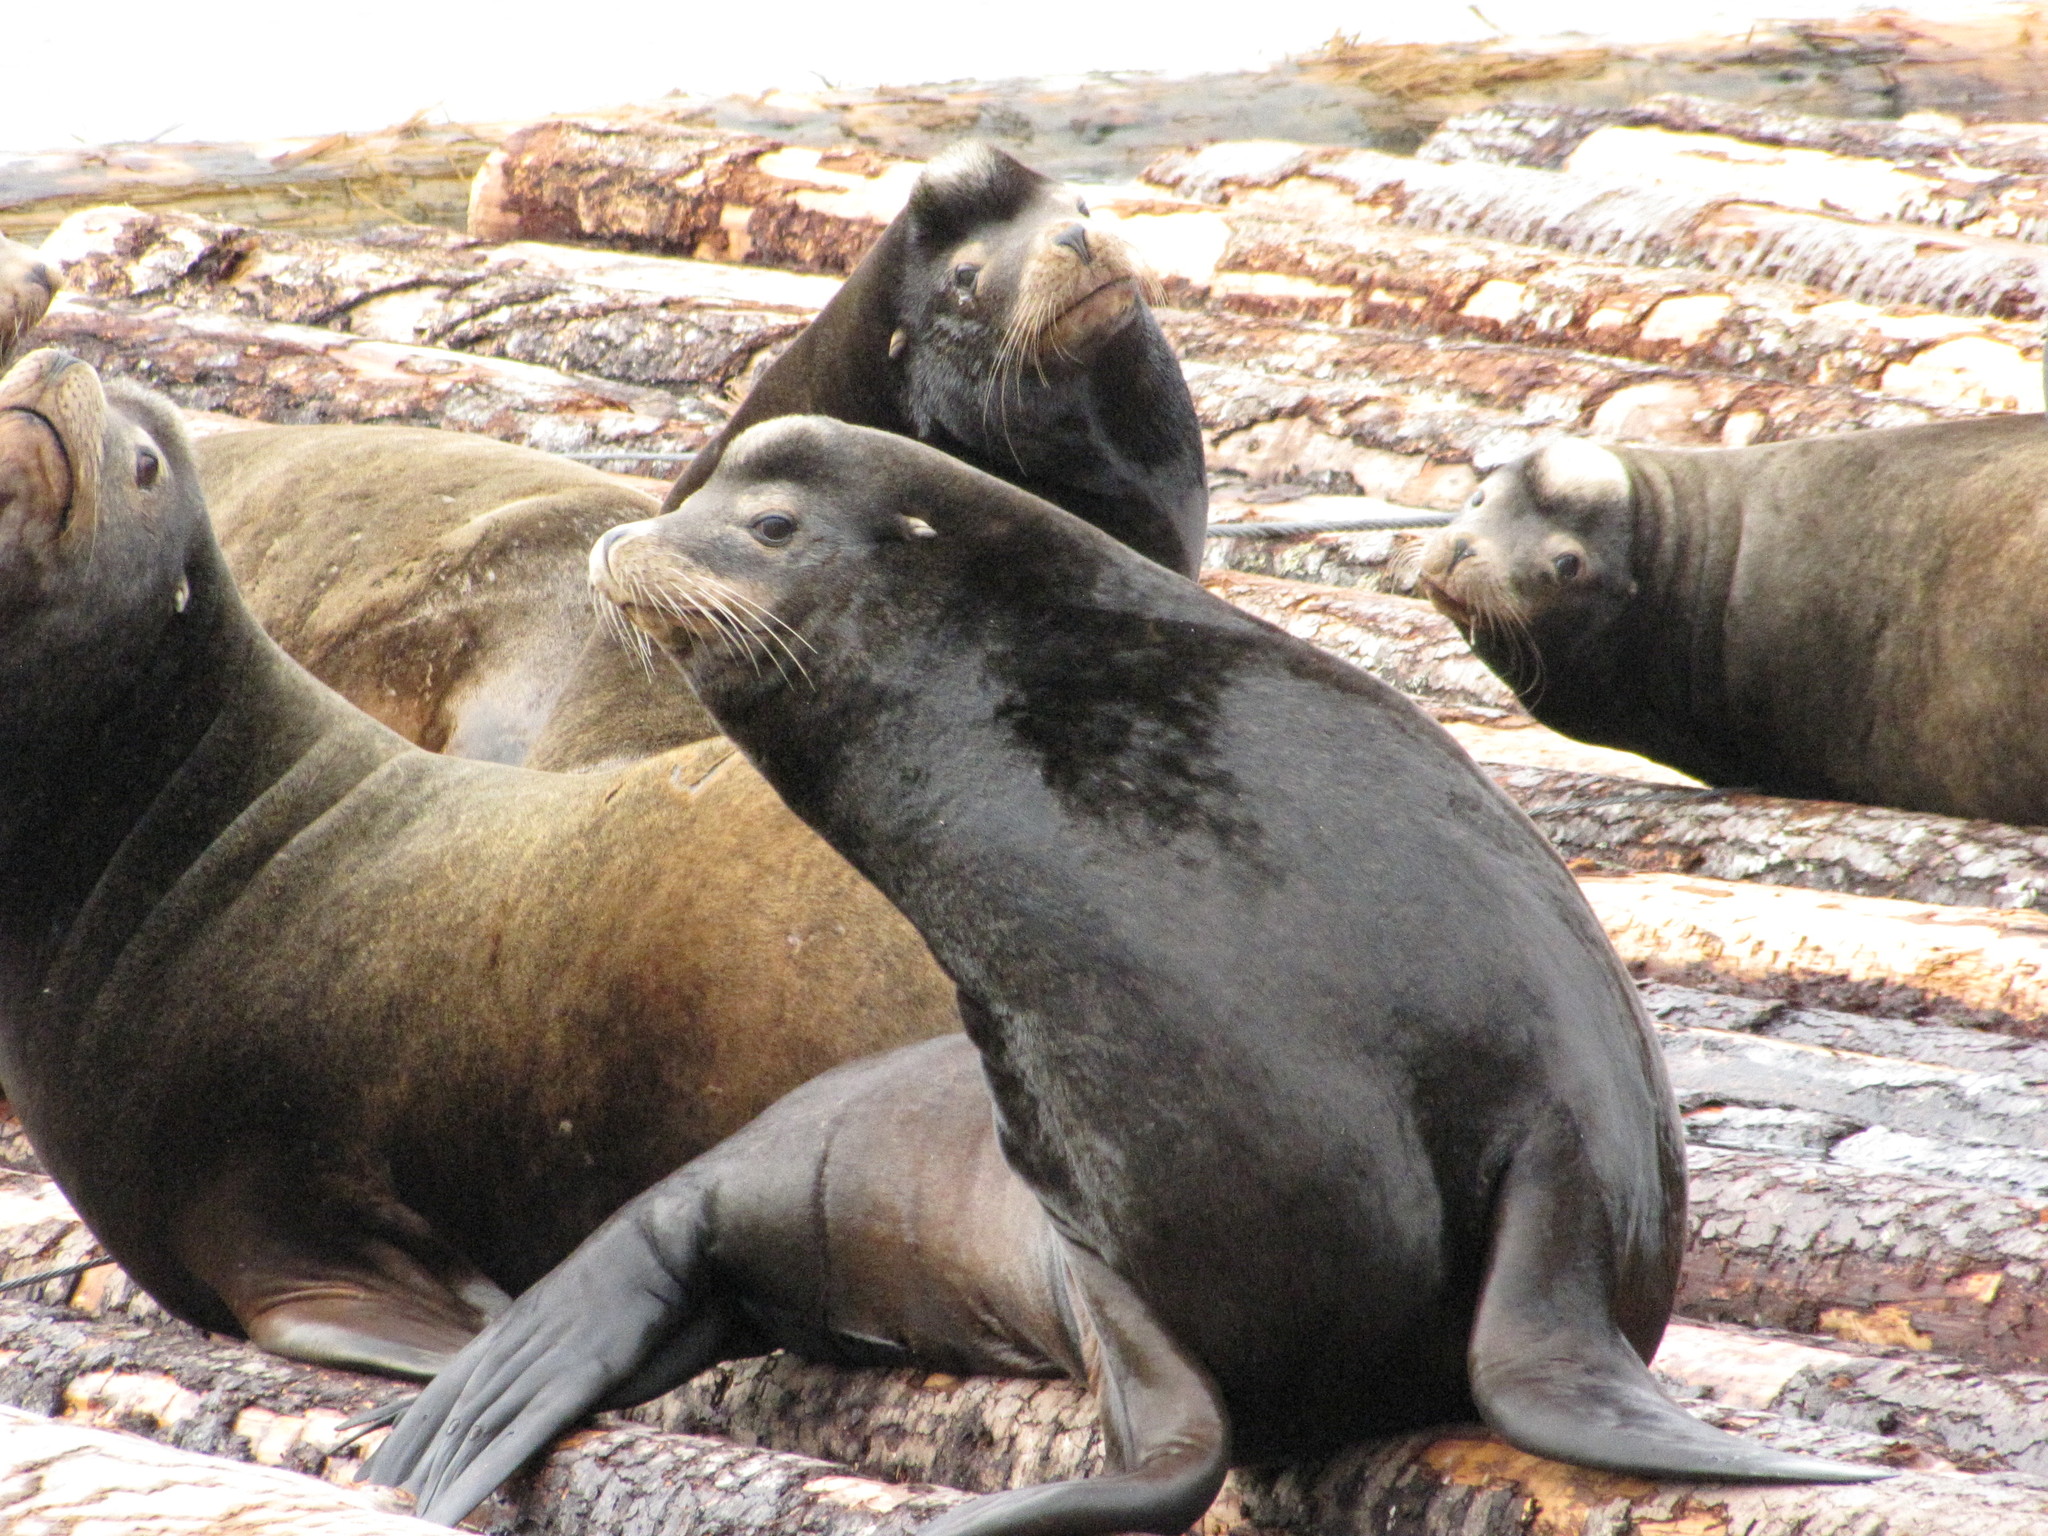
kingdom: Animalia
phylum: Chordata
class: Mammalia
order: Carnivora
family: Otariidae
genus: Zalophus
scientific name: Zalophus californianus
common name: California sea lion
